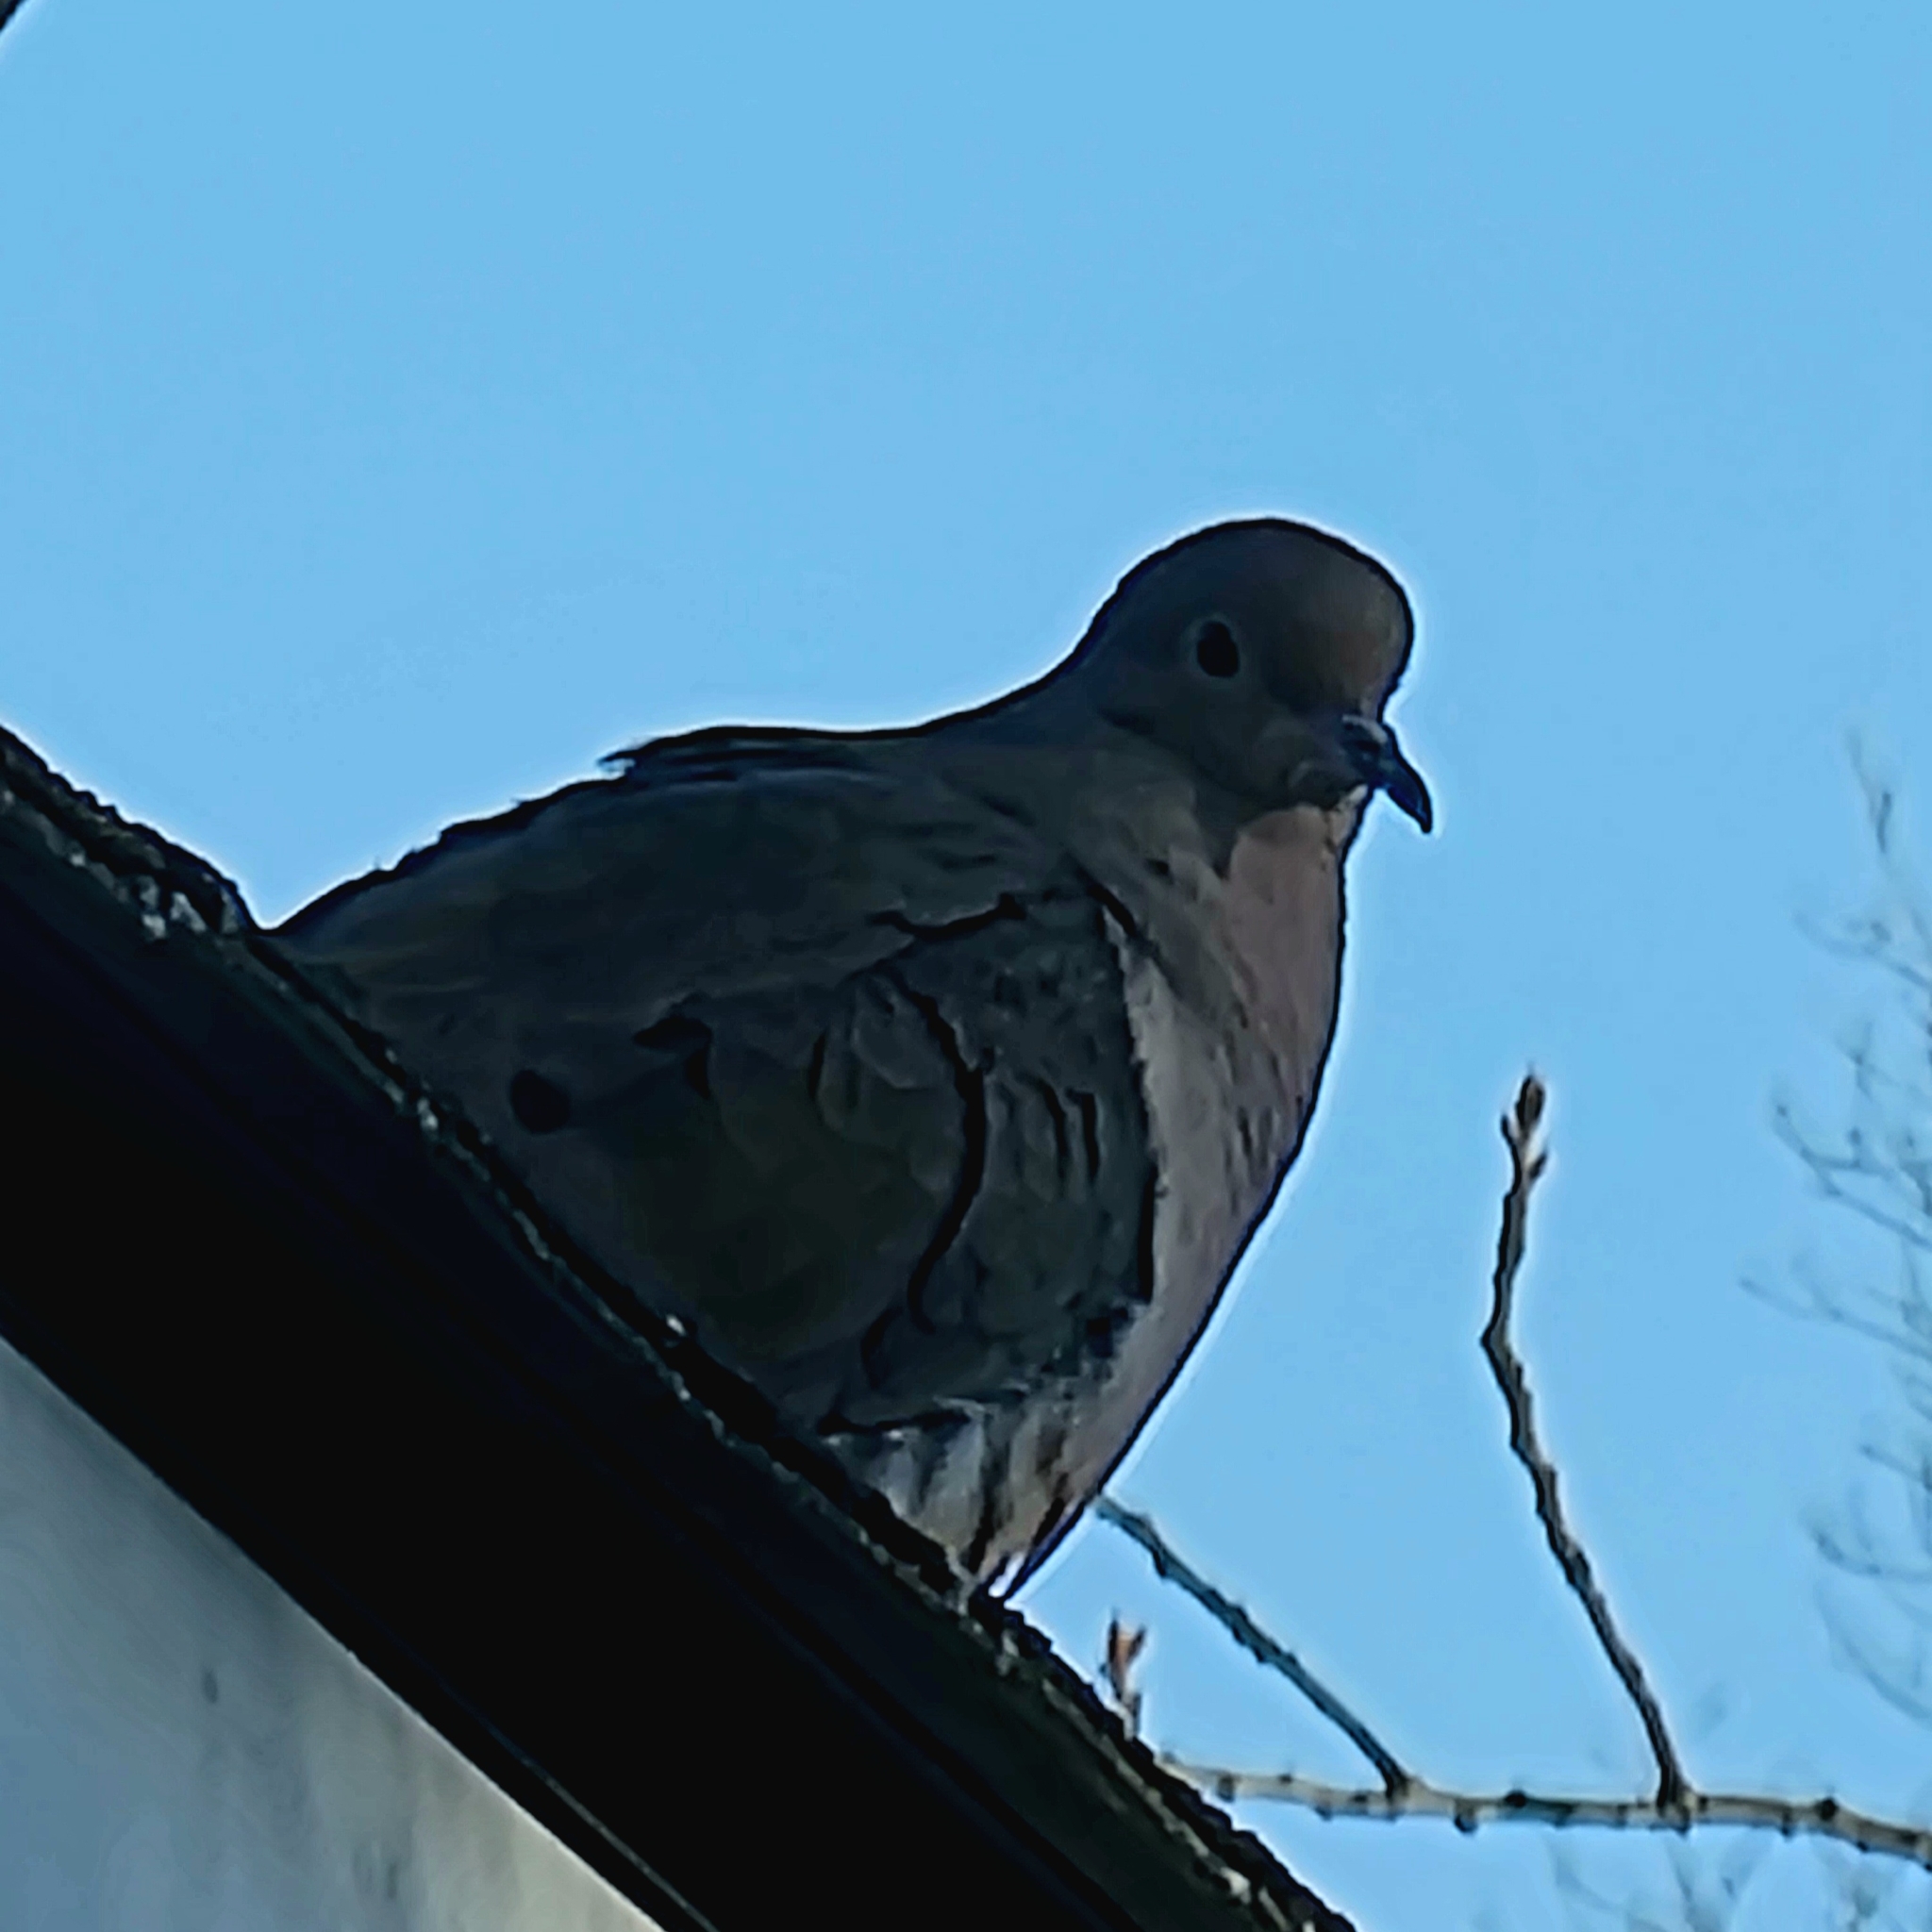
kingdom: Animalia
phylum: Chordata
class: Aves
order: Columbiformes
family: Columbidae
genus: Zenaida
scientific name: Zenaida macroura
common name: Mourning dove
